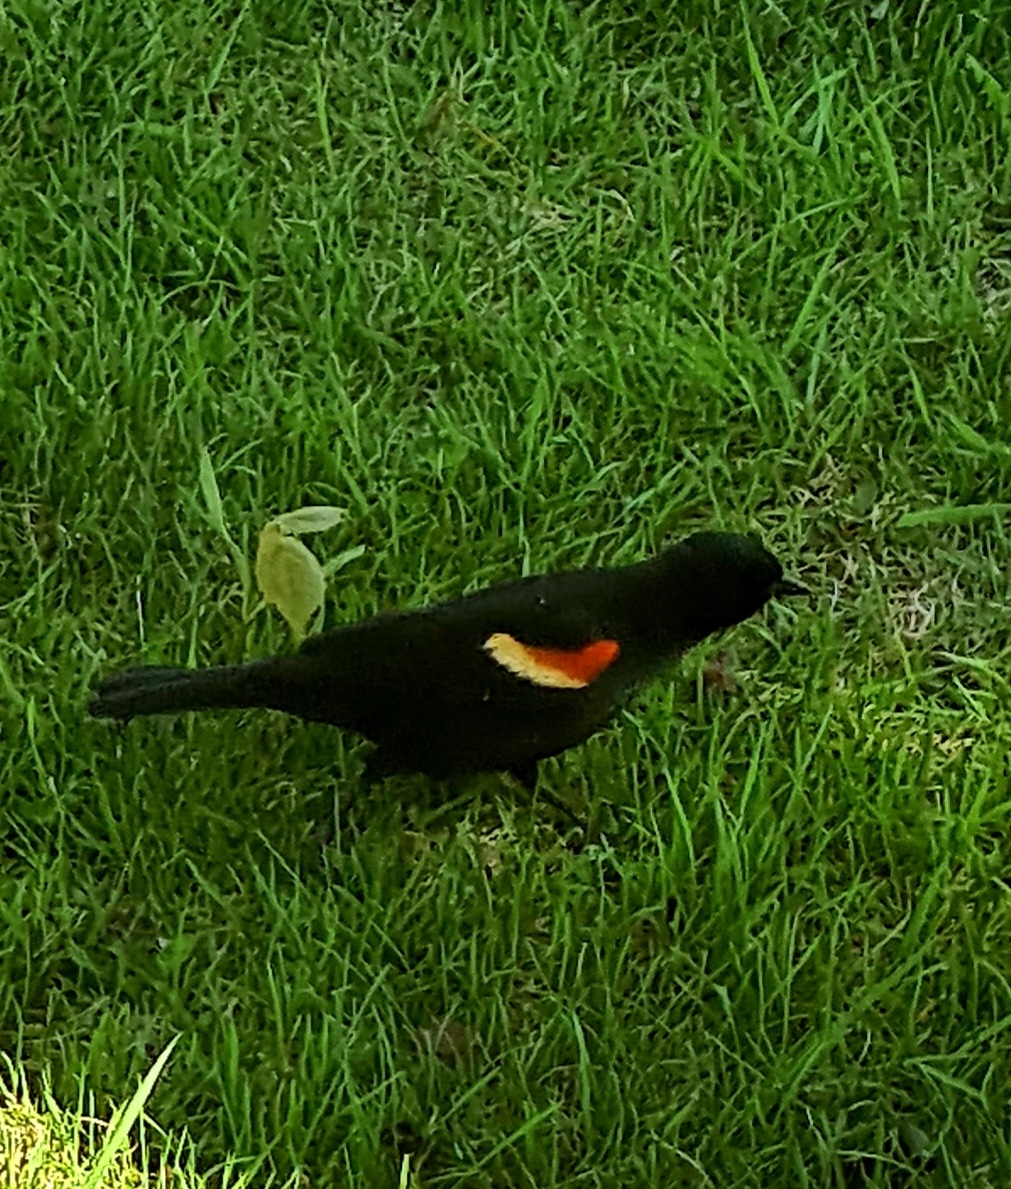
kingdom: Animalia
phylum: Chordata
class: Aves
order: Passeriformes
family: Icteridae
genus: Agelaius
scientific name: Agelaius phoeniceus
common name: Red-winged blackbird
